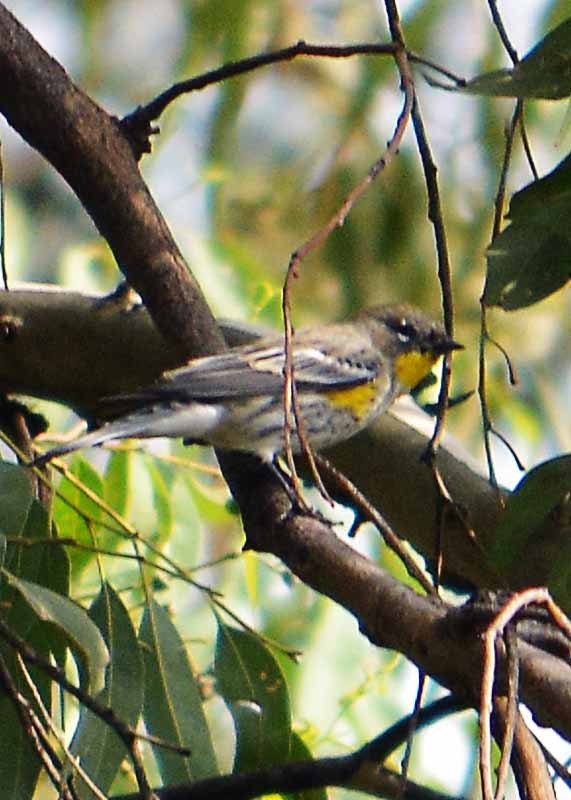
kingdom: Animalia
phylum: Chordata
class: Aves
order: Passeriformes
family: Parulidae
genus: Setophaga
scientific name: Setophaga coronata
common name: Myrtle warbler
